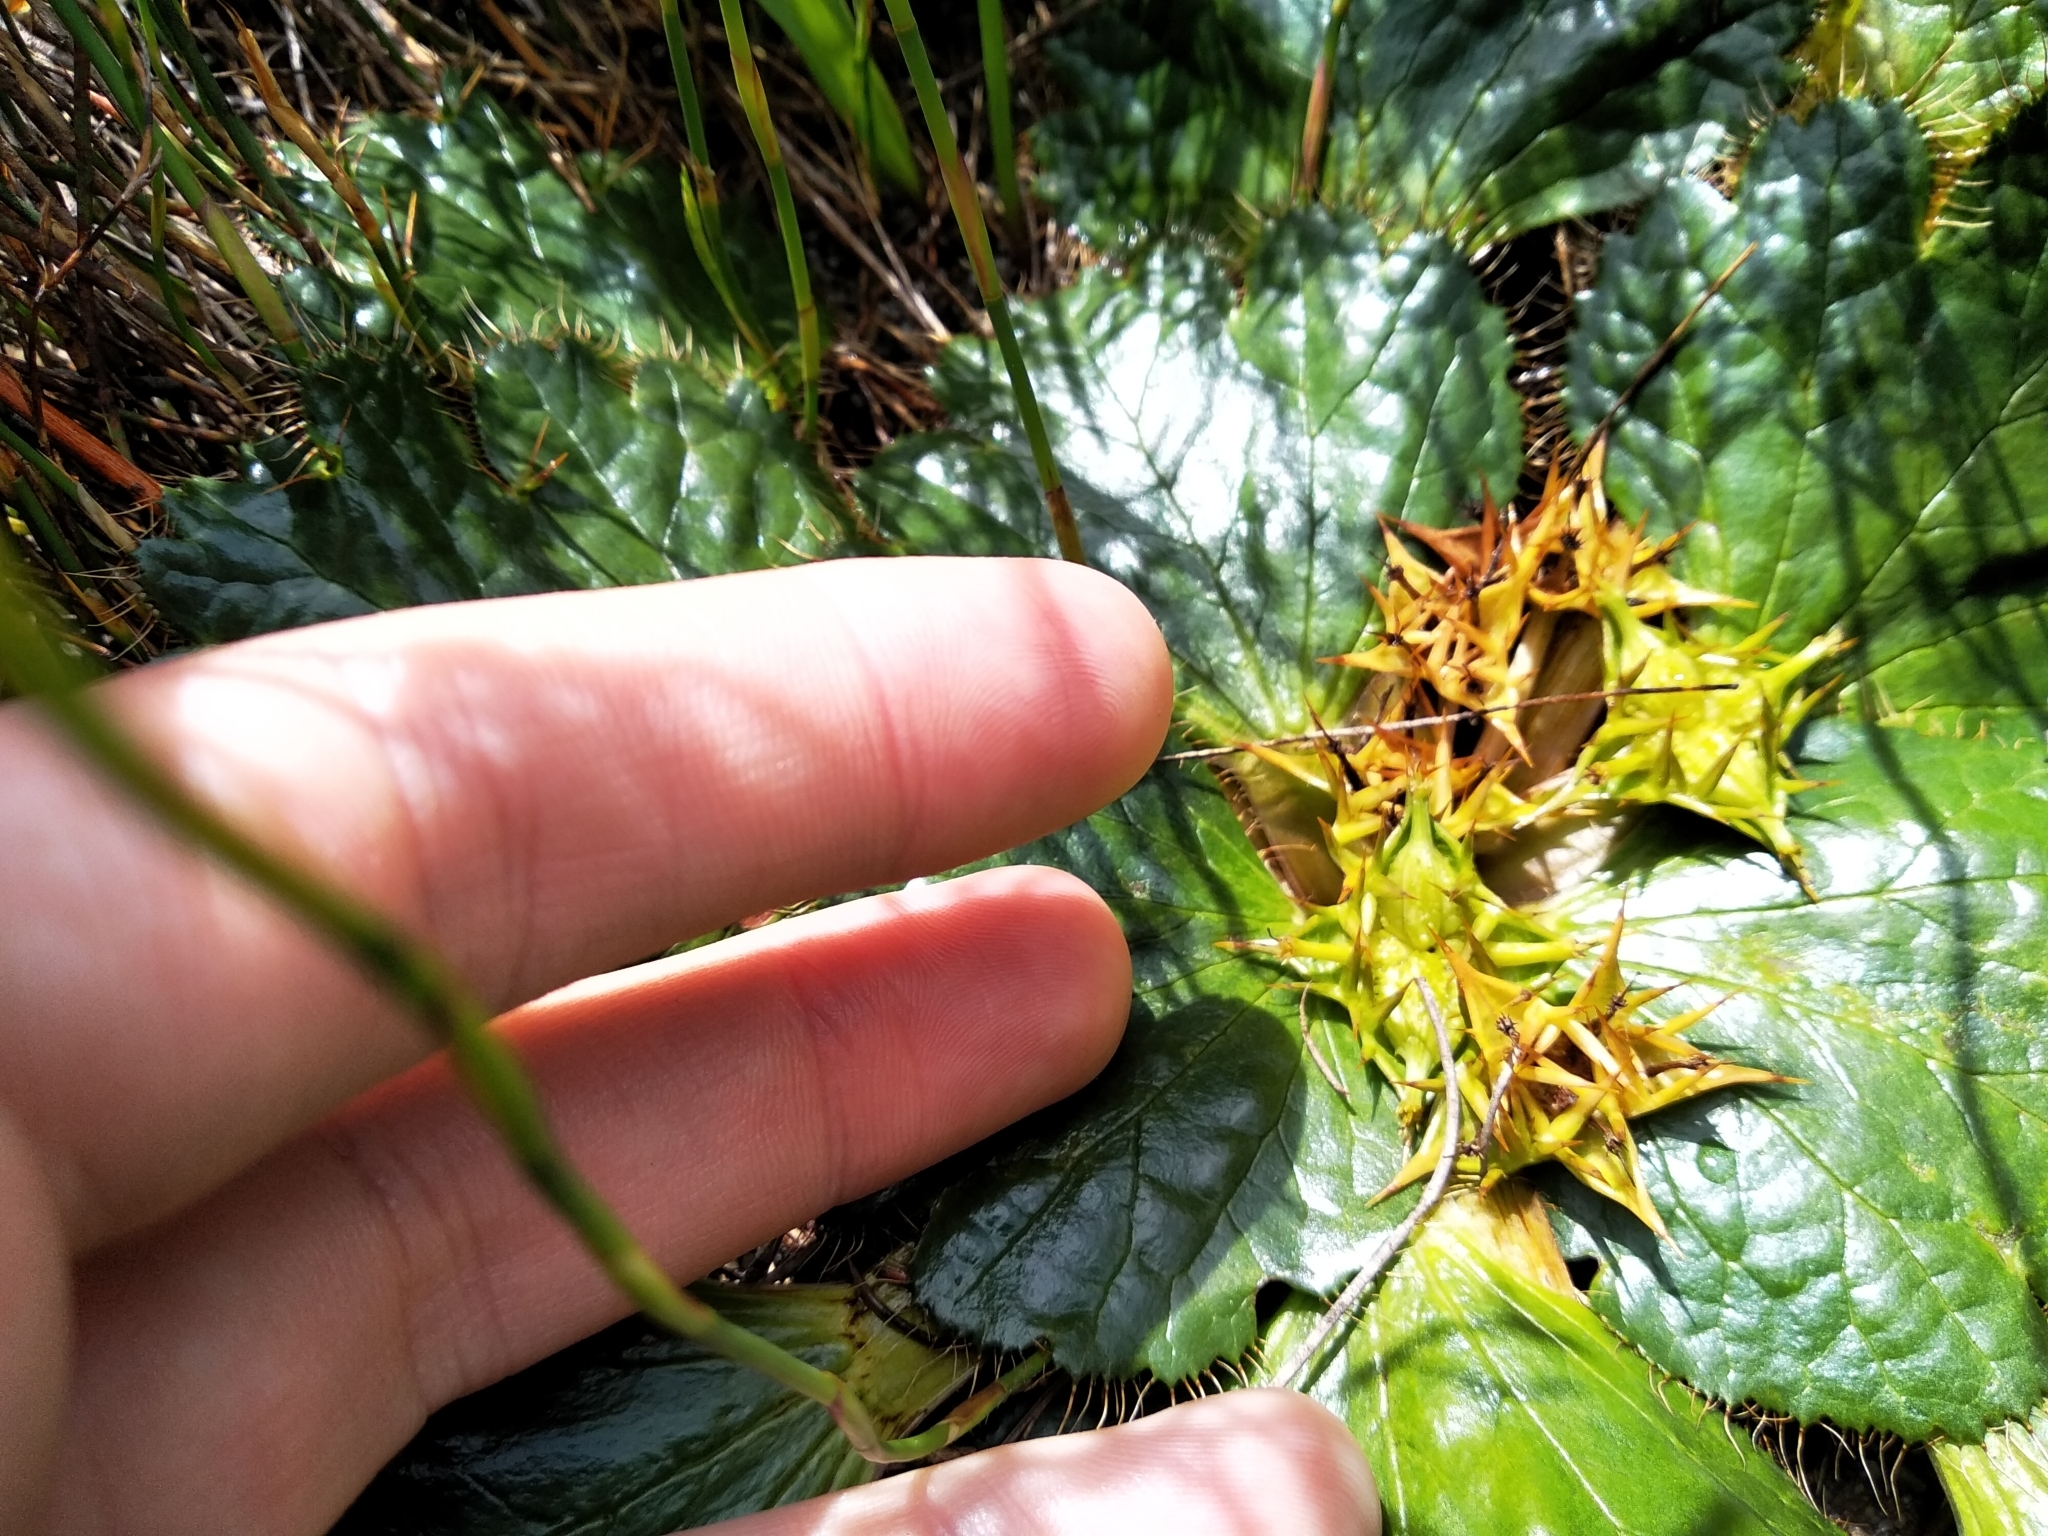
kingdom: Plantae
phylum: Tracheophyta
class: Magnoliopsida
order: Apiales
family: Apiaceae
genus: Arctopus
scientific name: Arctopus echinatus
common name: Platdoring
